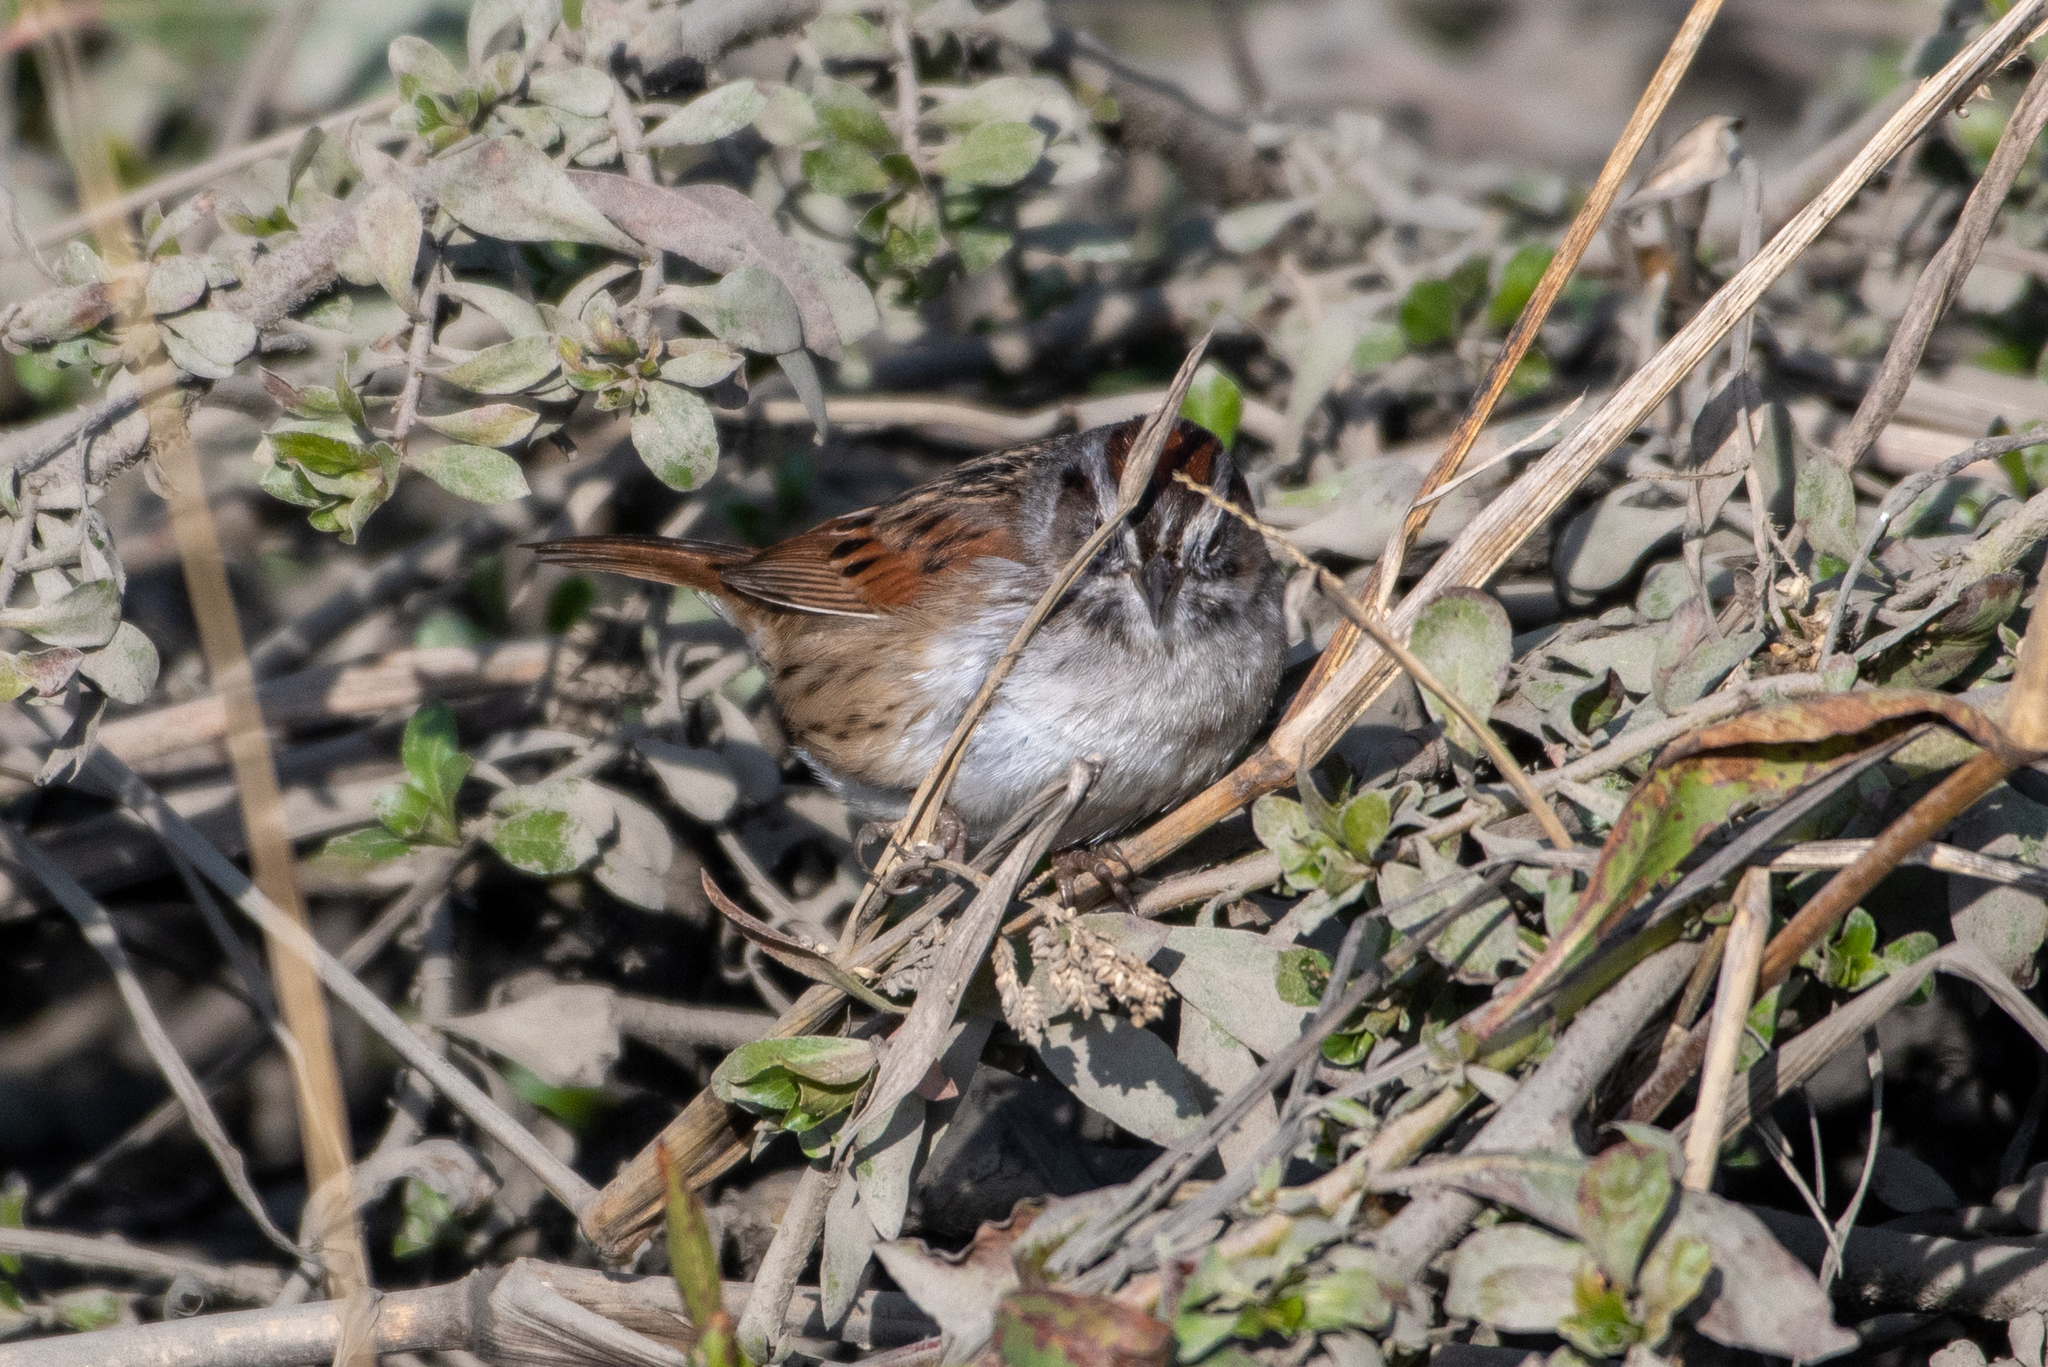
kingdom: Animalia
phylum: Chordata
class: Aves
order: Passeriformes
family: Passerellidae
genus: Melospiza
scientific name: Melospiza georgiana
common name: Swamp sparrow
